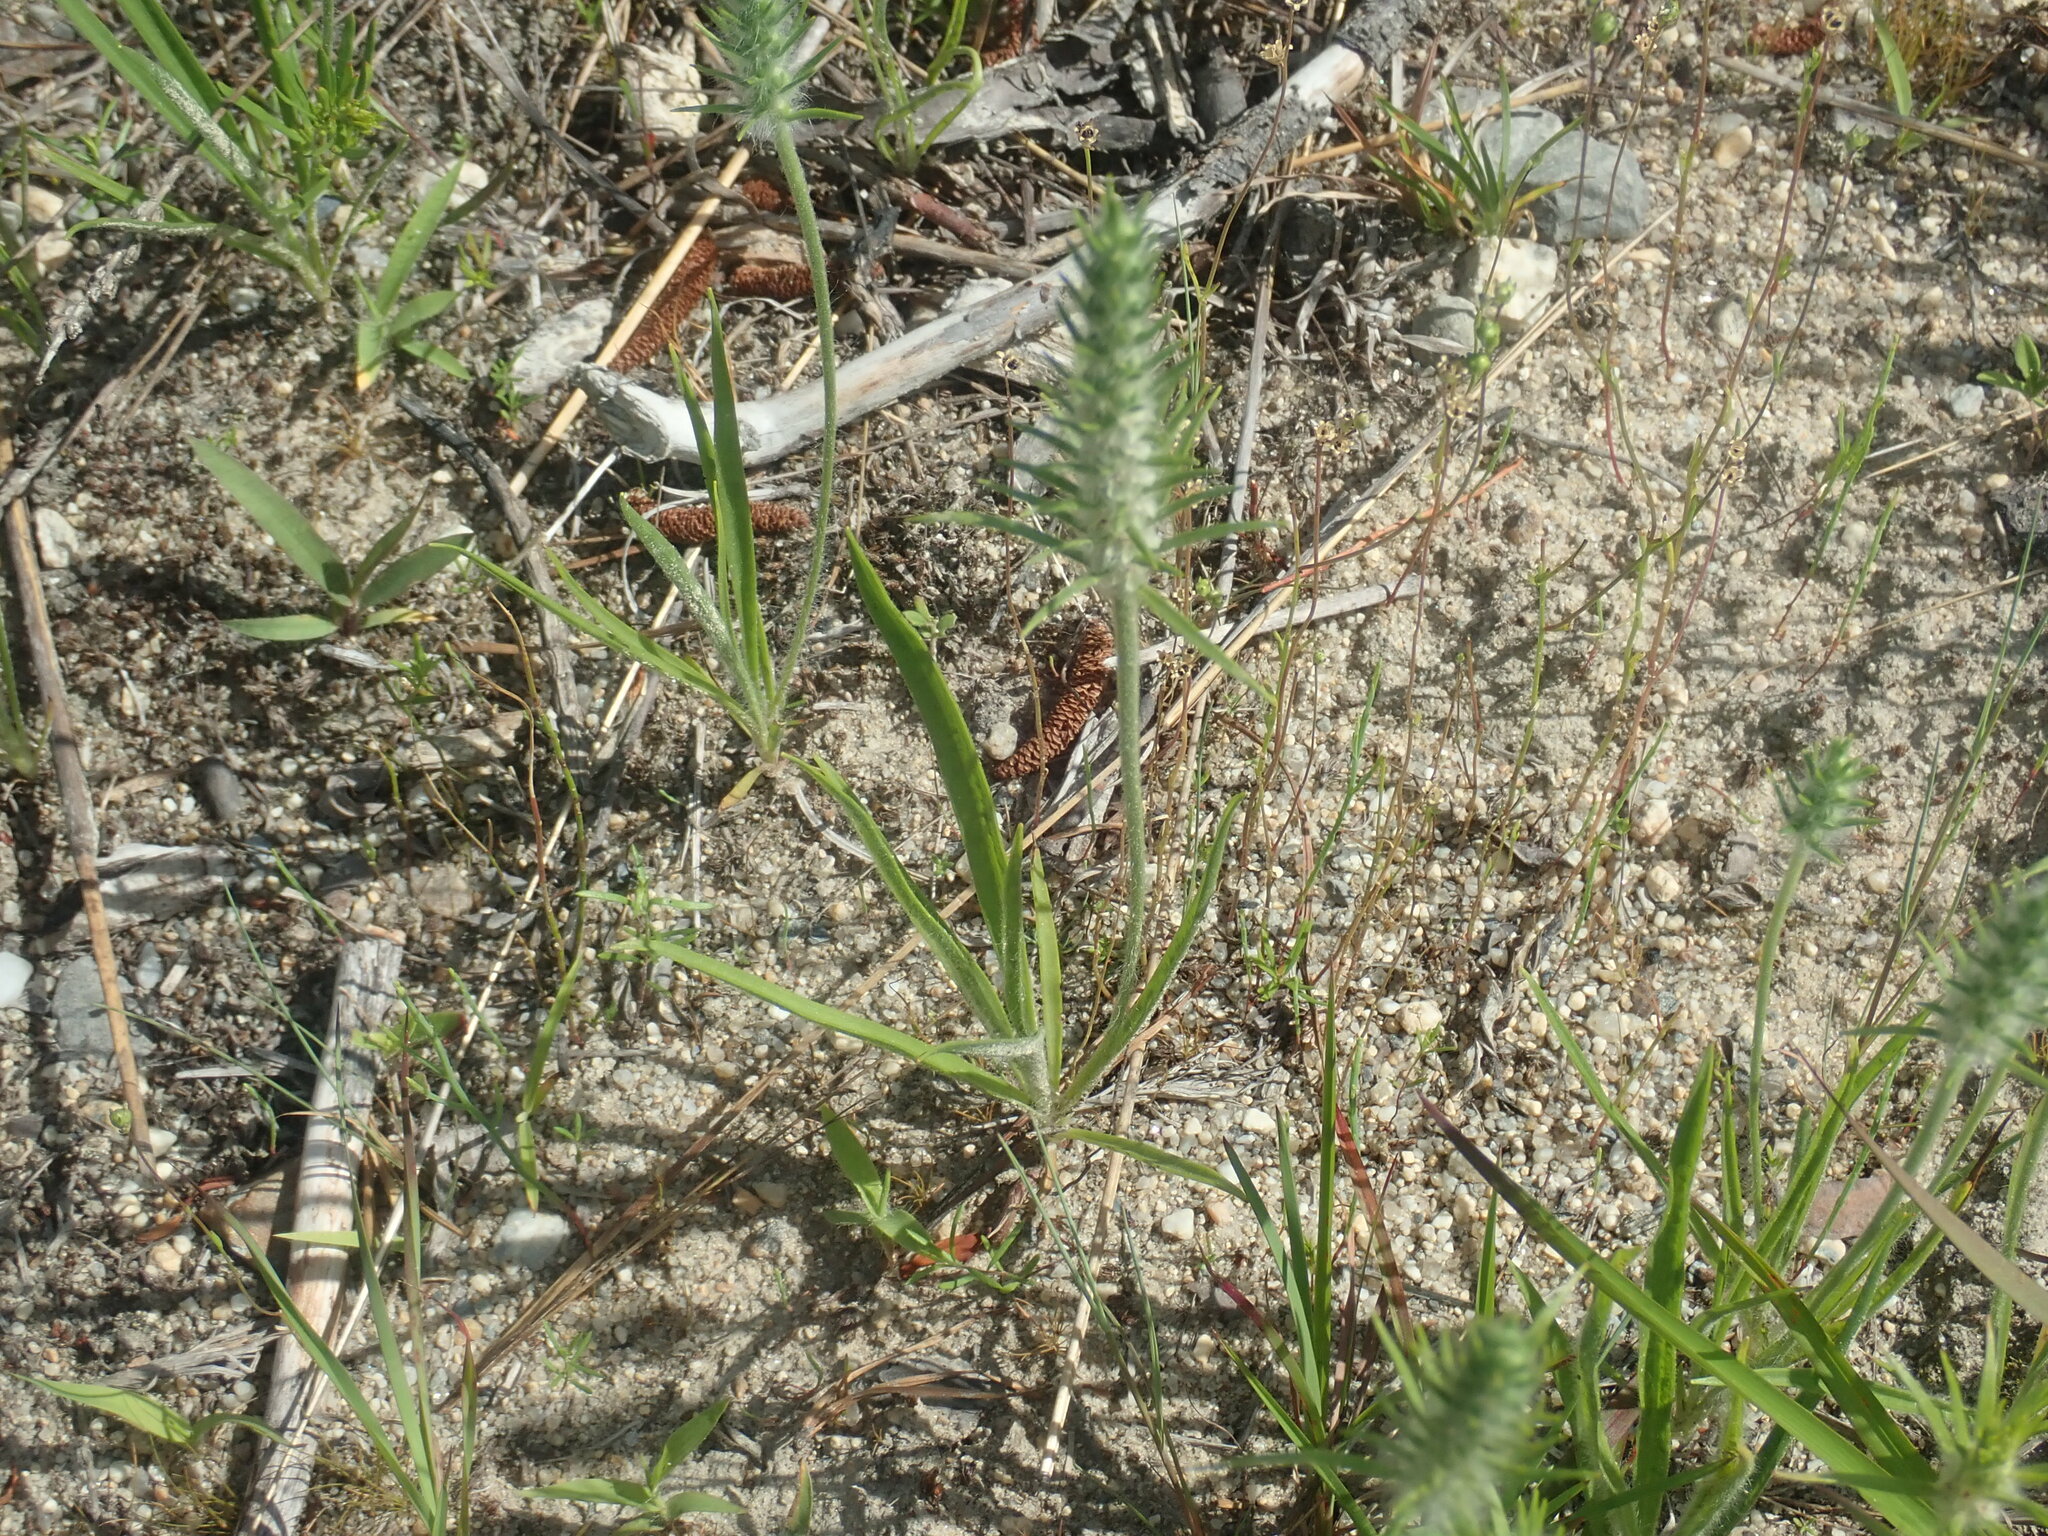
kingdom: Plantae
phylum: Tracheophyta
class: Magnoliopsida
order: Lamiales
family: Plantaginaceae
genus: Plantago
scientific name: Plantago aristata
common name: Bracted plantain
